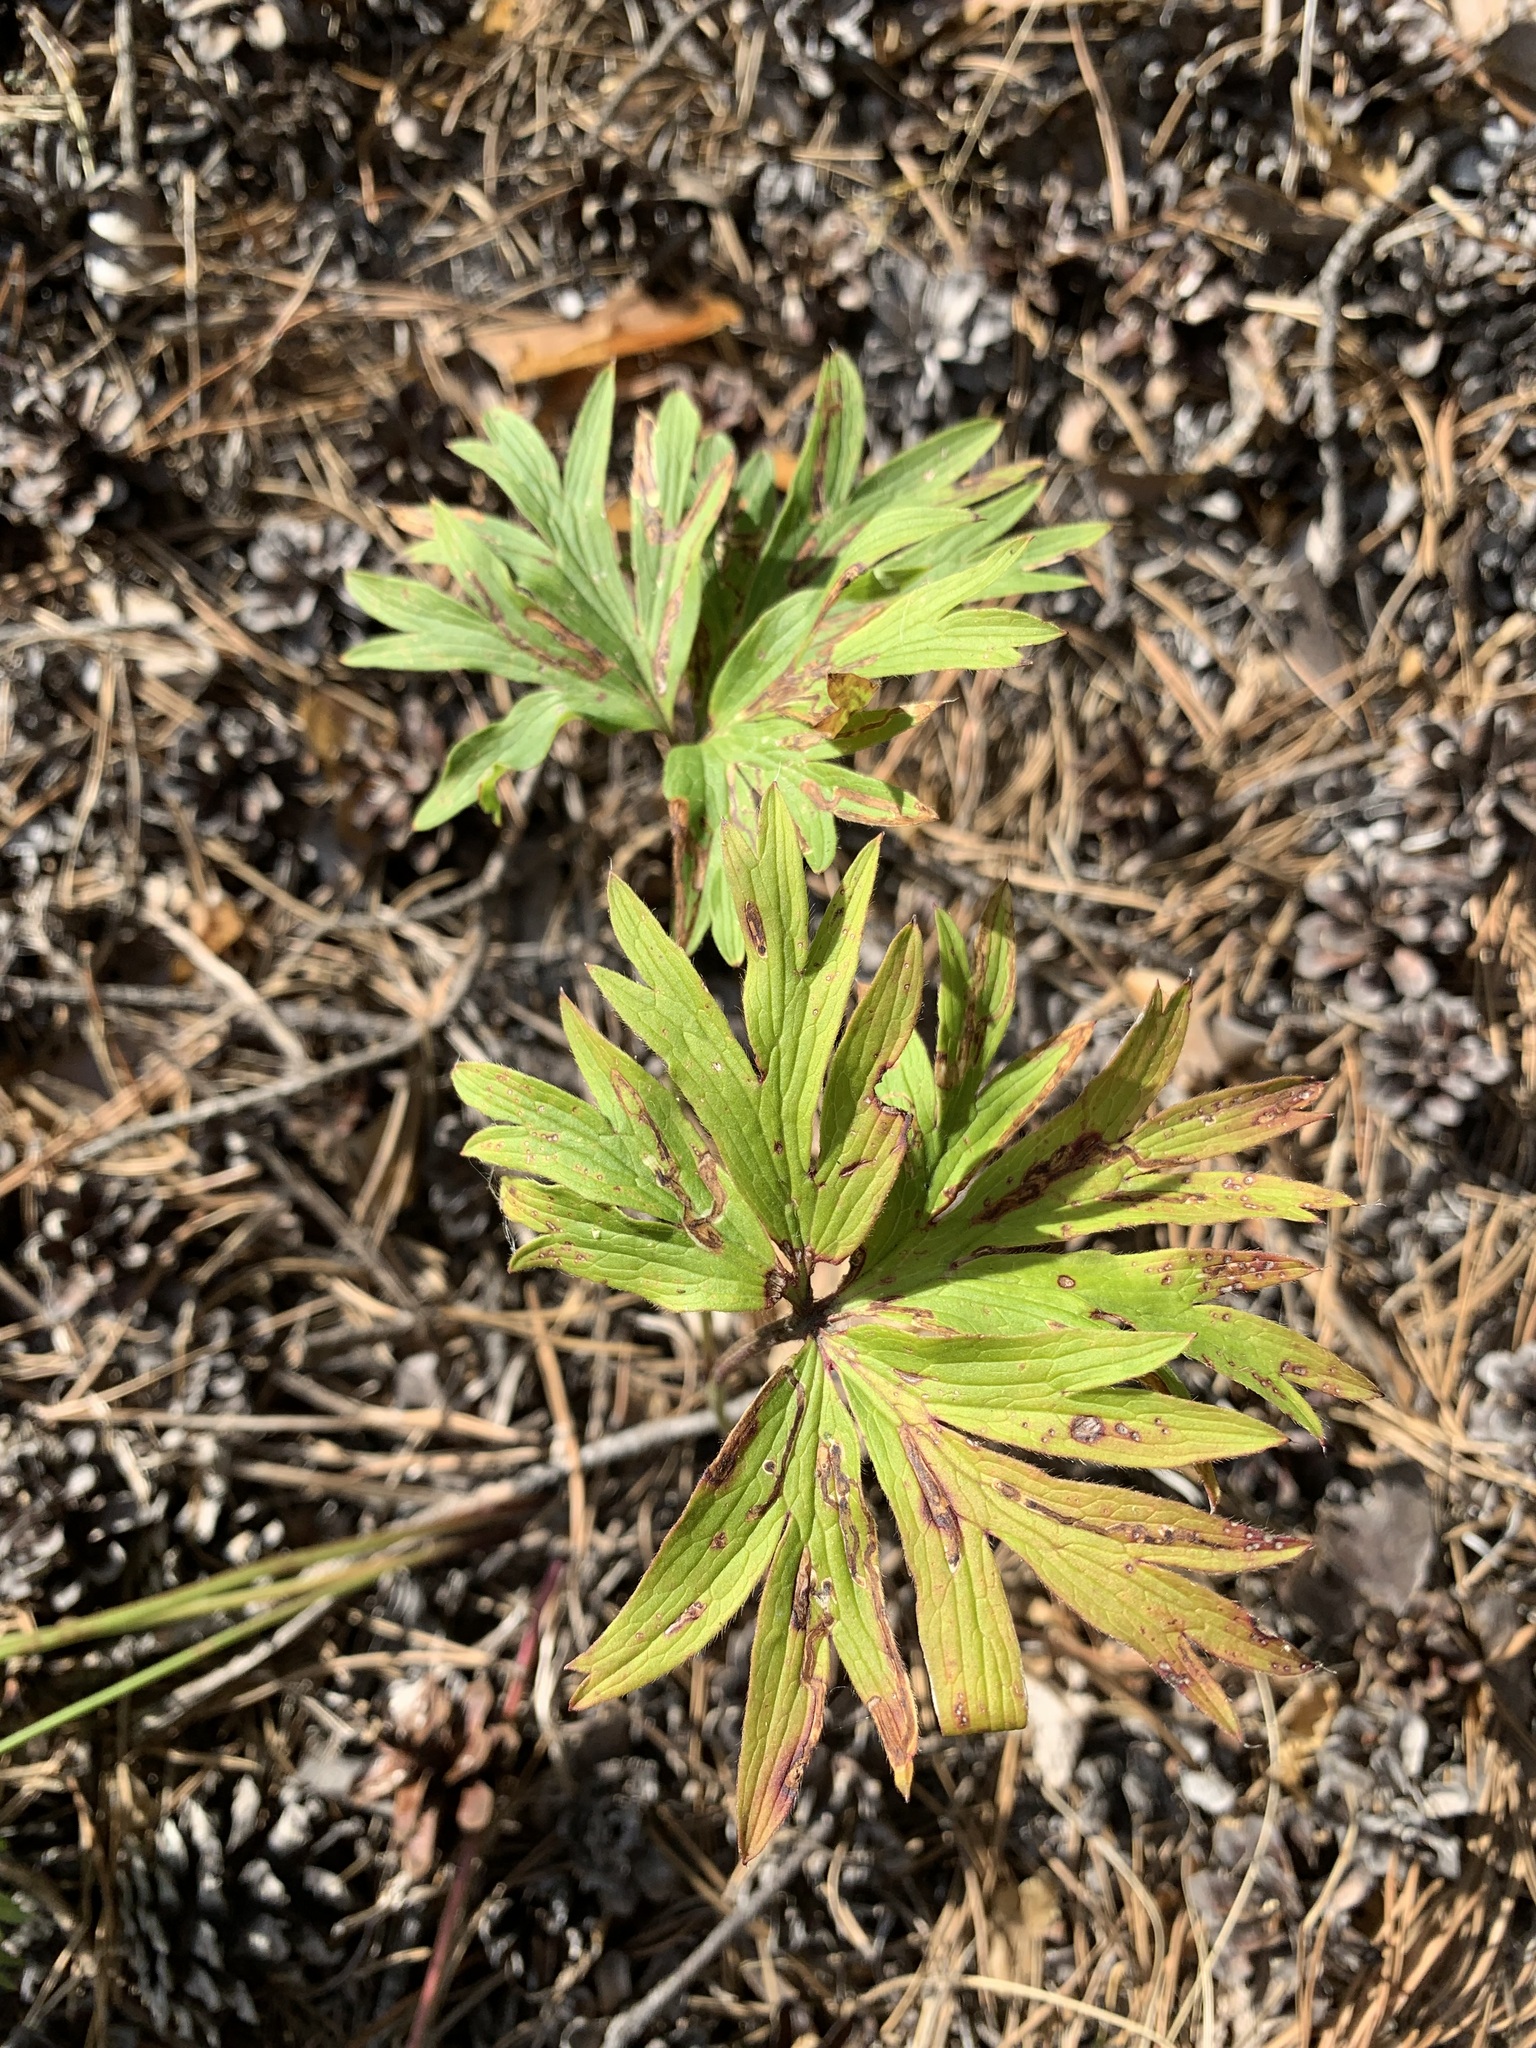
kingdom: Plantae
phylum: Tracheophyta
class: Magnoliopsida
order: Ranunculales
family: Ranunculaceae
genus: Pulsatilla
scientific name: Pulsatilla patens
